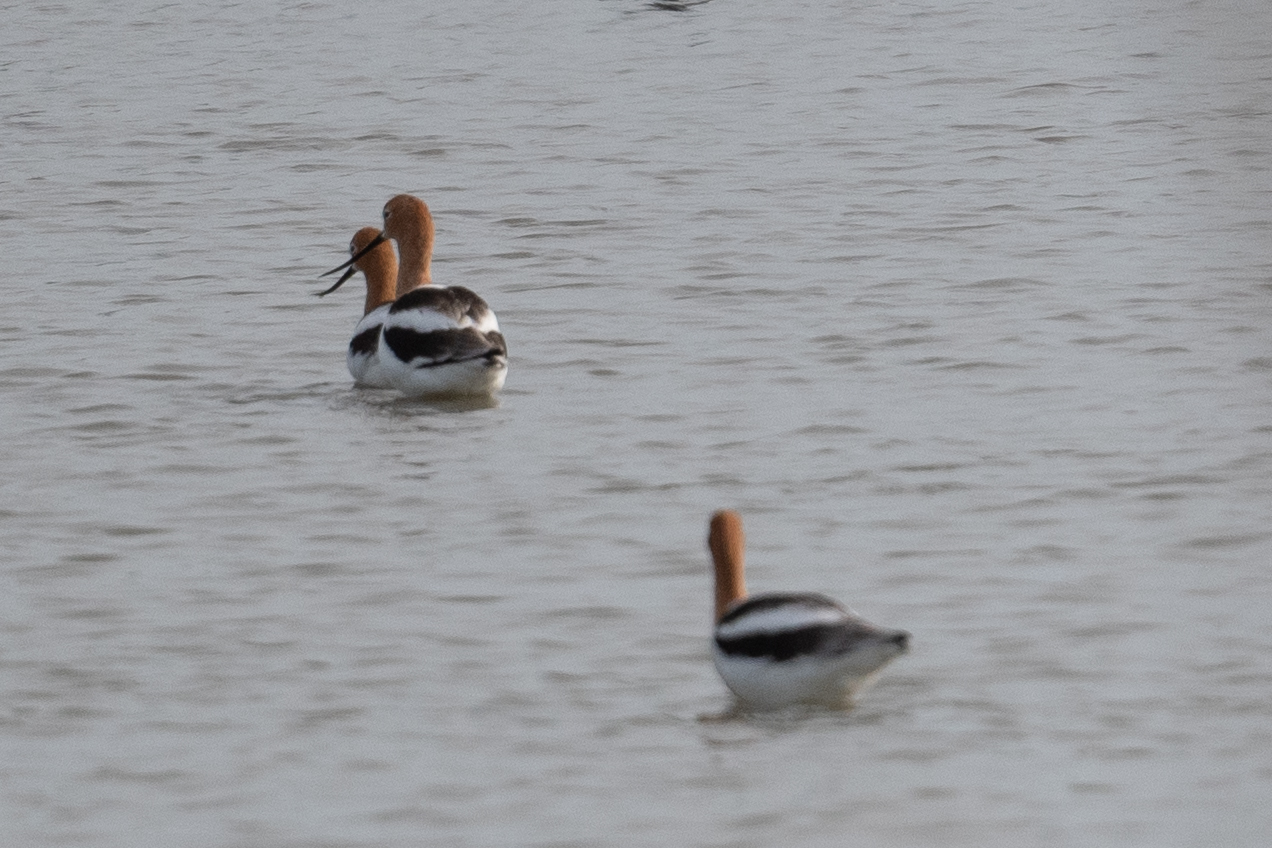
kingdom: Animalia
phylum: Chordata
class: Aves
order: Charadriiformes
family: Recurvirostridae
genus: Recurvirostra
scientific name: Recurvirostra americana
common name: American avocet
